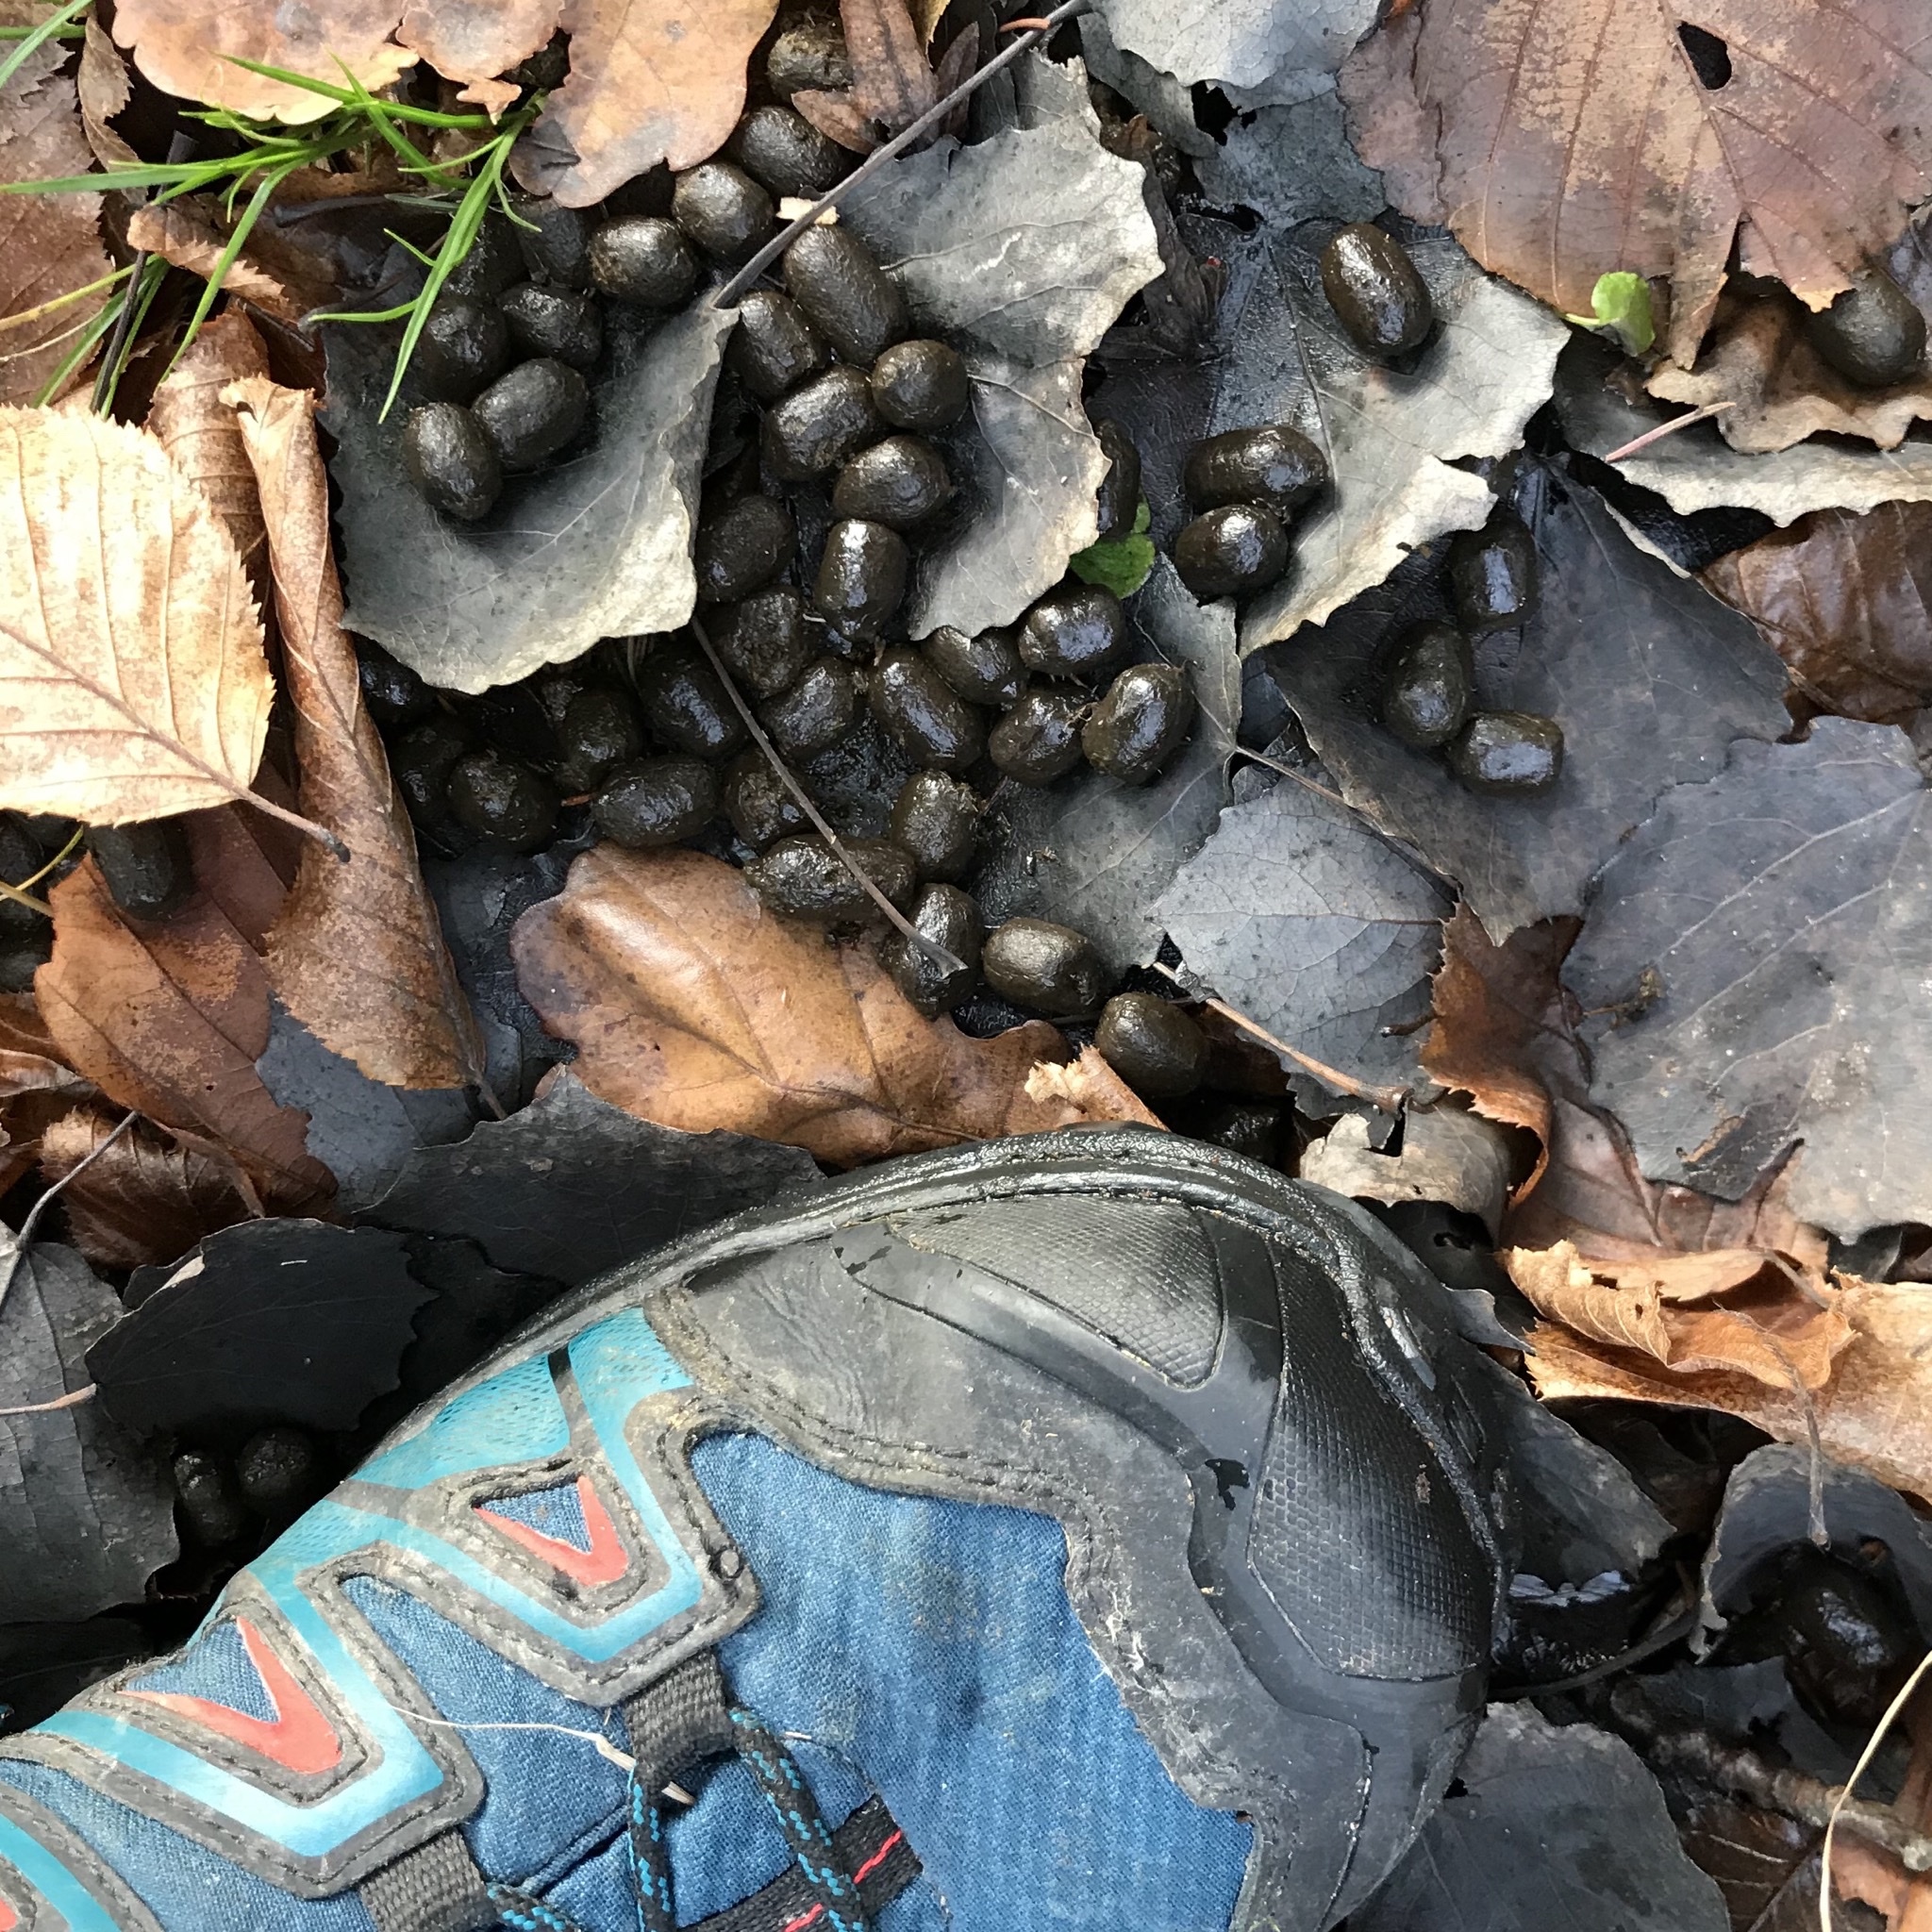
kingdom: Animalia
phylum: Chordata
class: Mammalia
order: Artiodactyla
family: Cervidae
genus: Capreolus
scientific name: Capreolus capreolus
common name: Western roe deer
